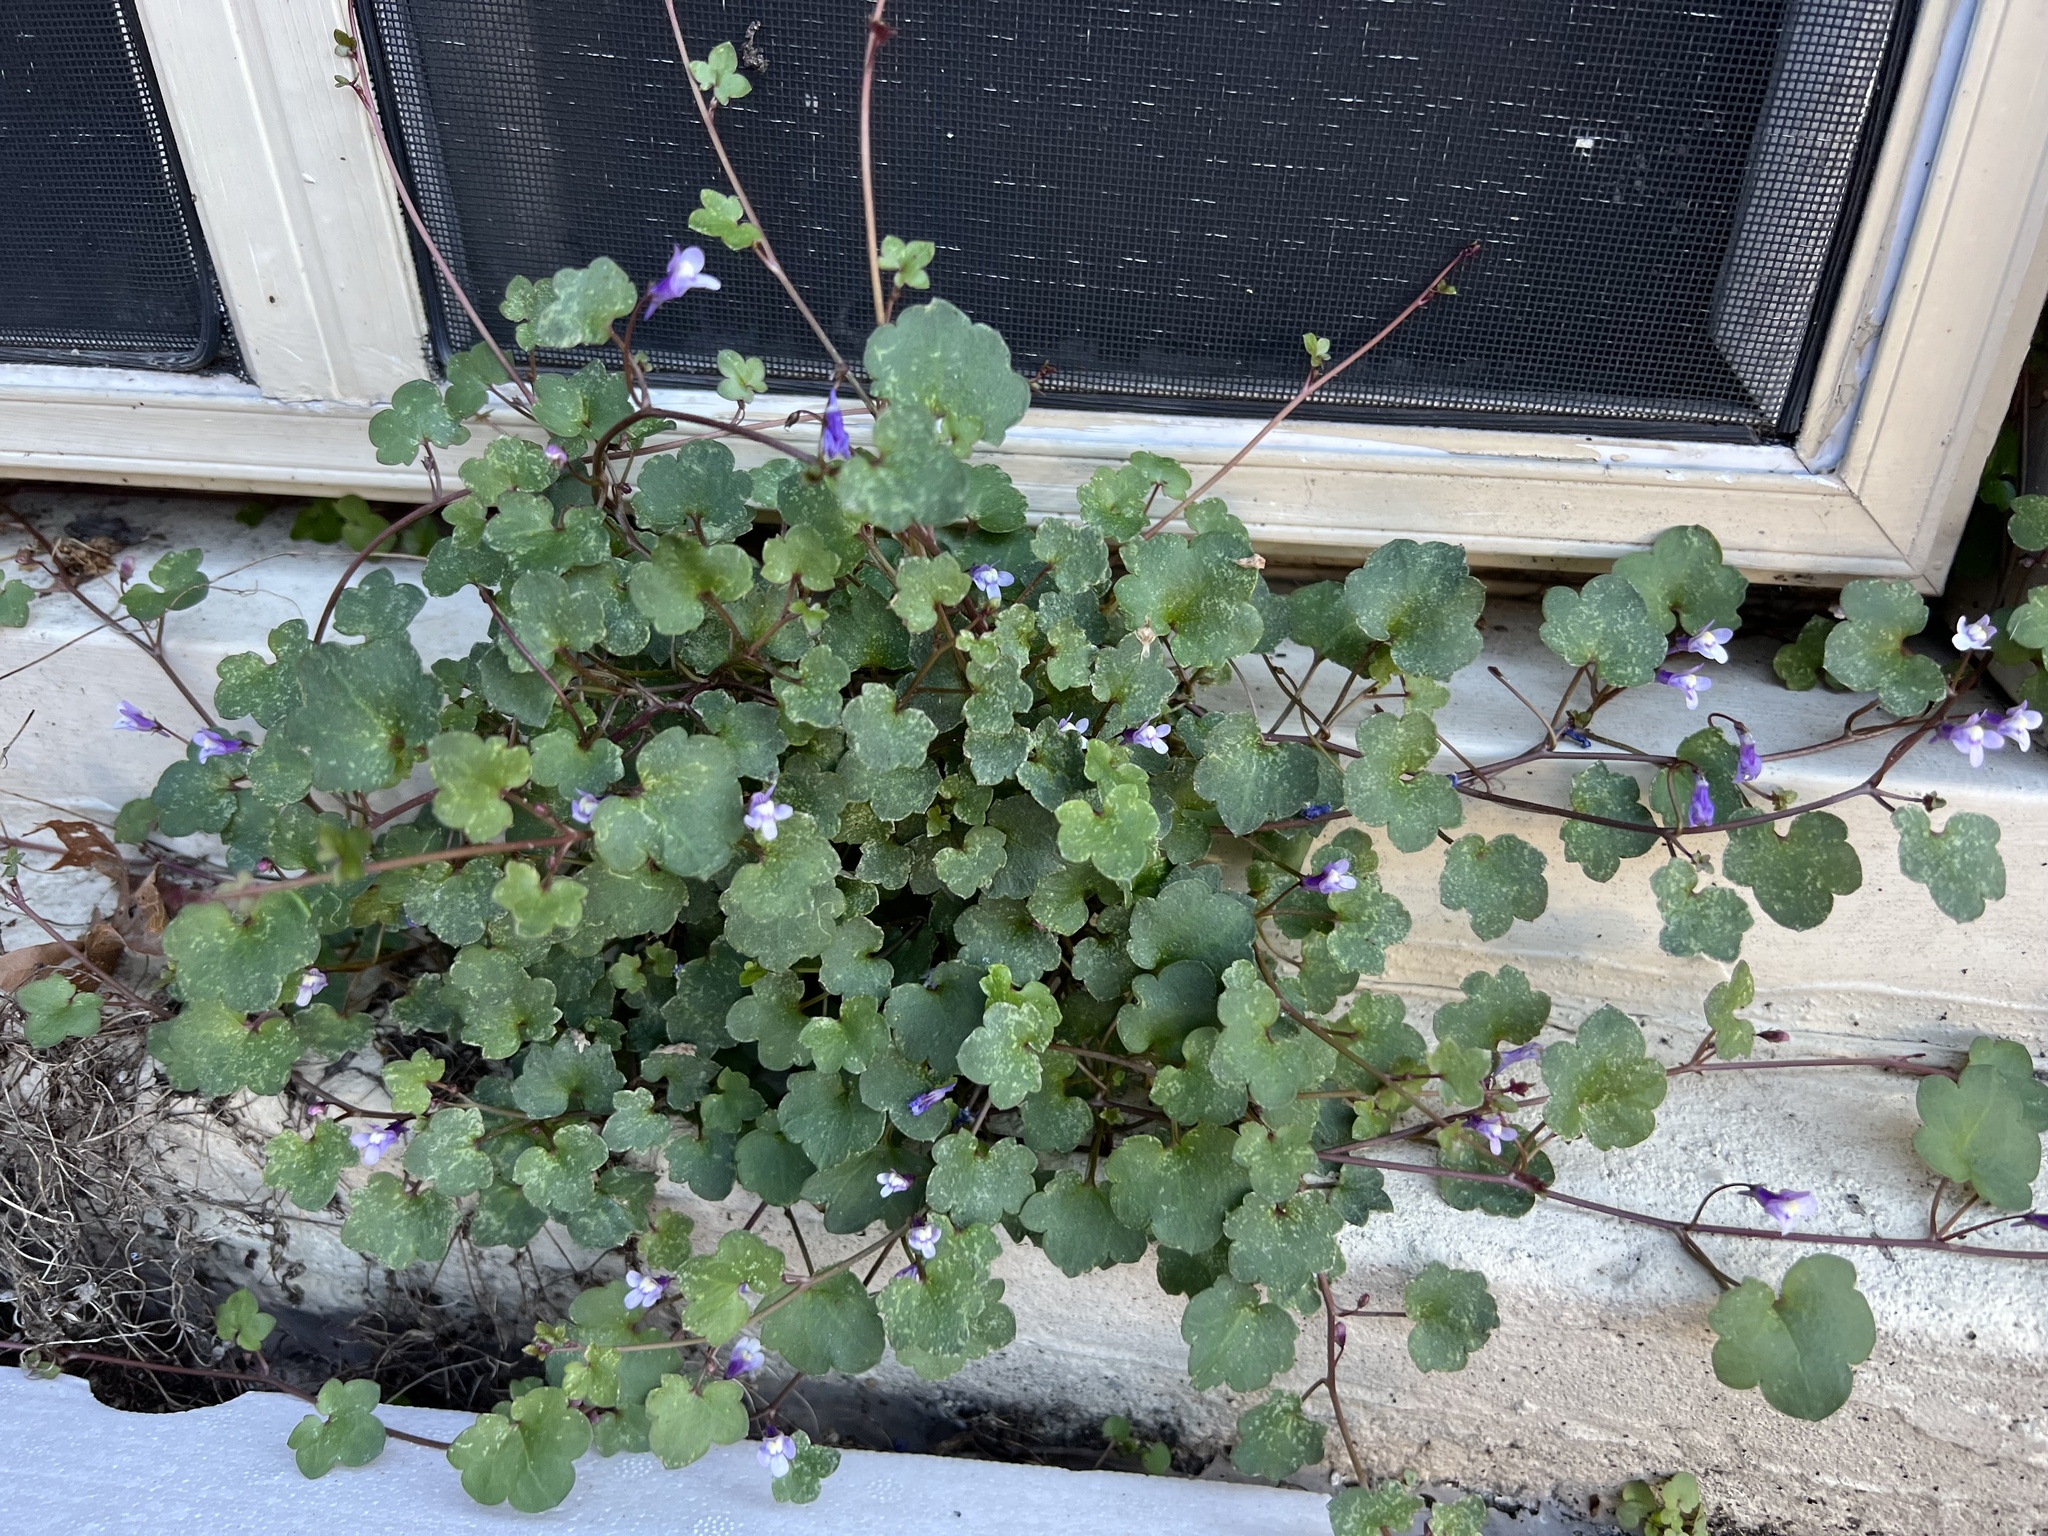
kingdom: Plantae
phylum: Tracheophyta
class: Magnoliopsida
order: Lamiales
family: Plantaginaceae
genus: Cymbalaria
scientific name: Cymbalaria muralis
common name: Ivy-leaved toadflax
